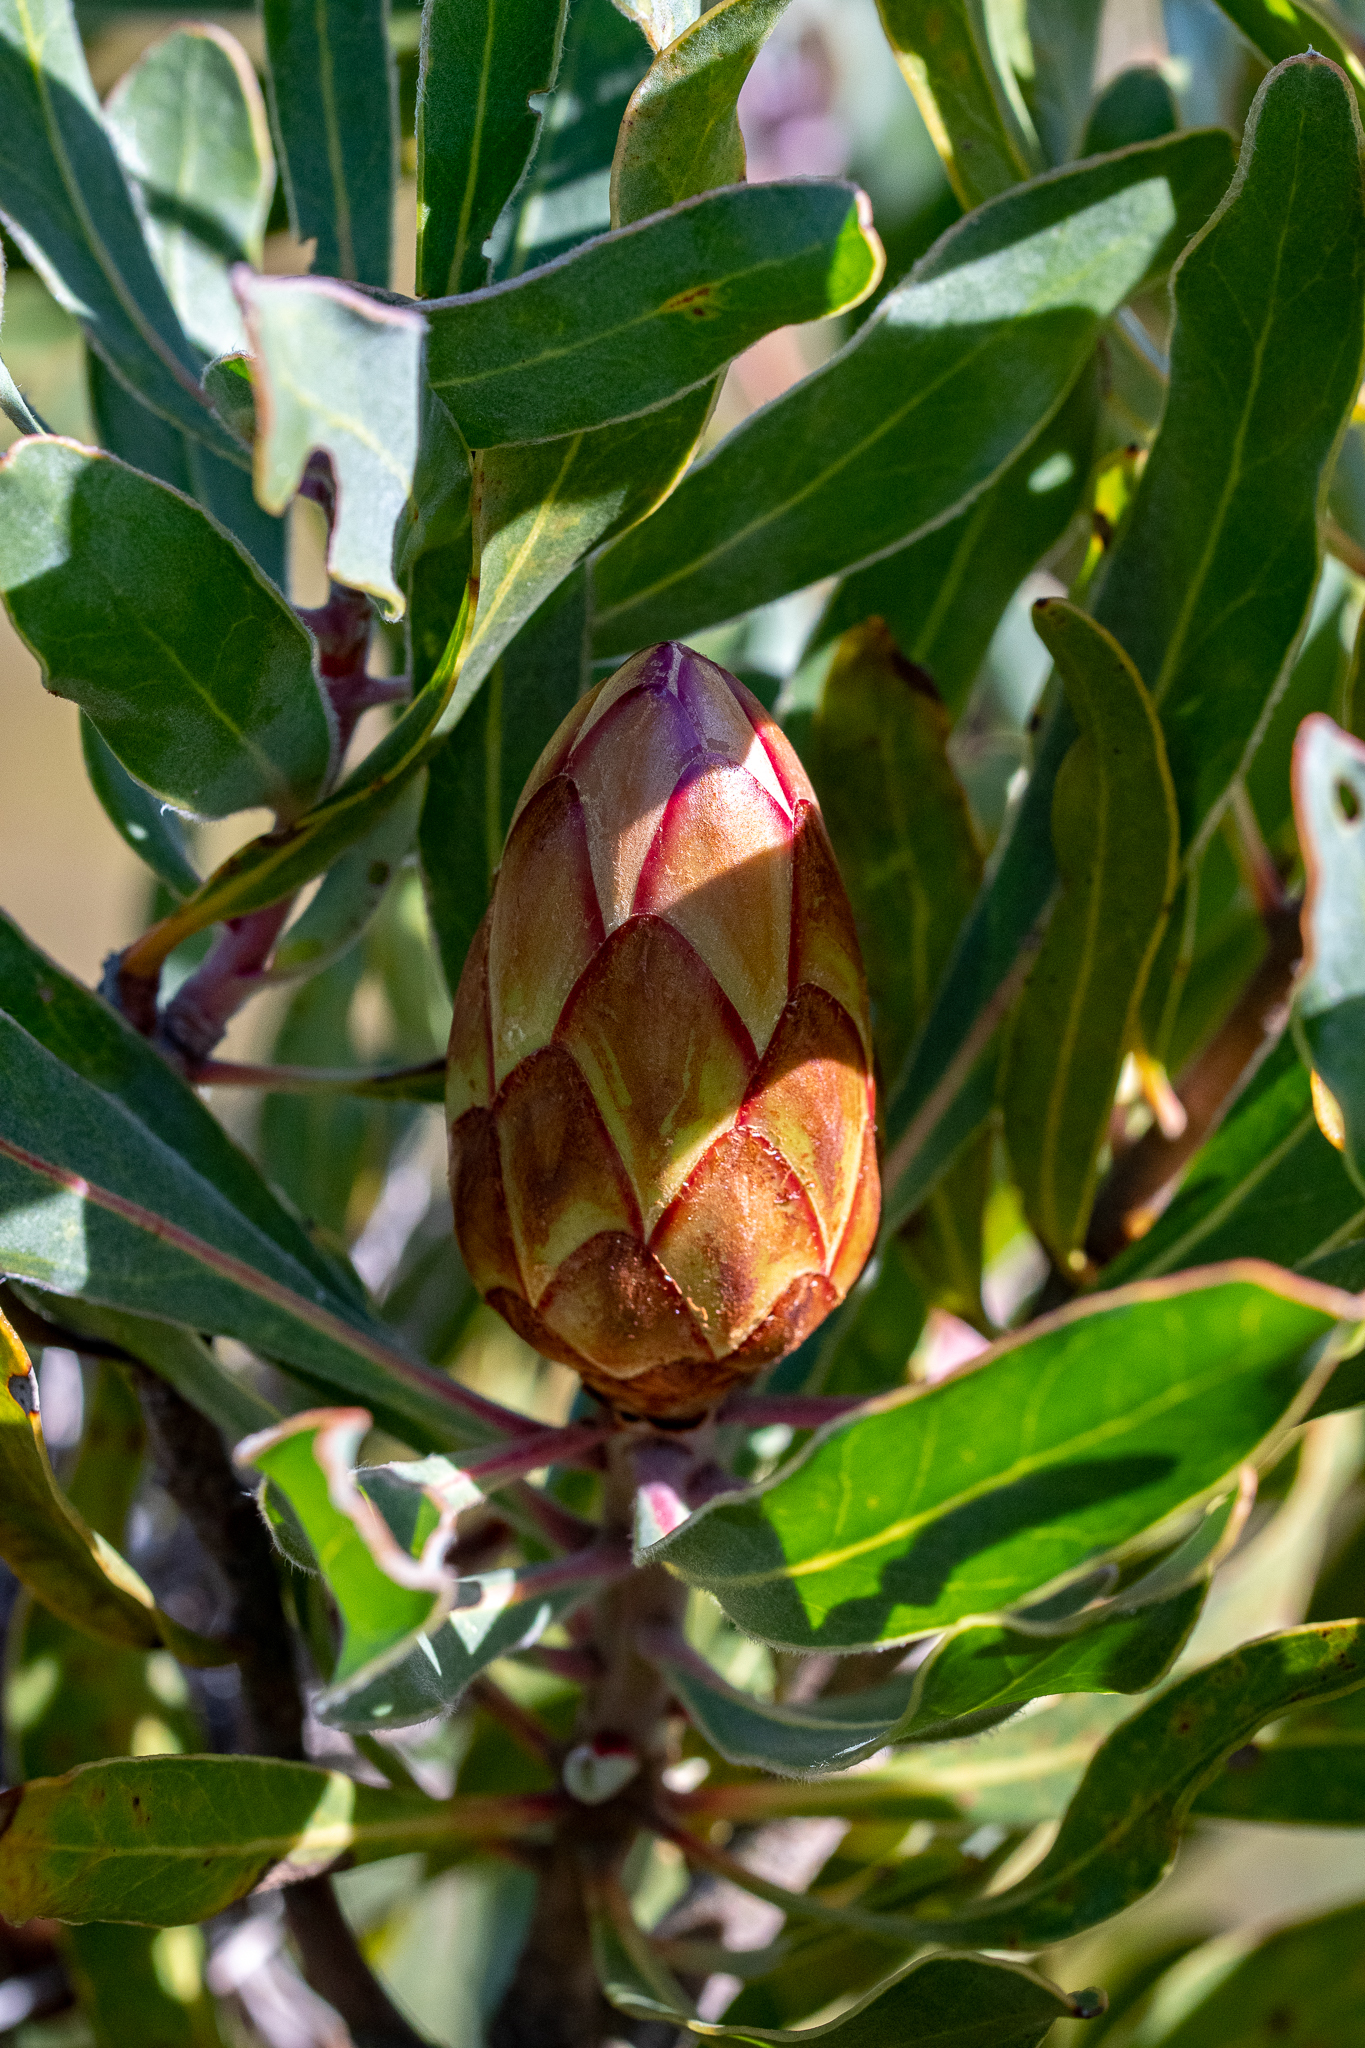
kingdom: Plantae
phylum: Tracheophyta
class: Magnoliopsida
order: Proteales
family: Proteaceae
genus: Protea
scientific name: Protea susannae
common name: Foetid-leaf sugarbush
